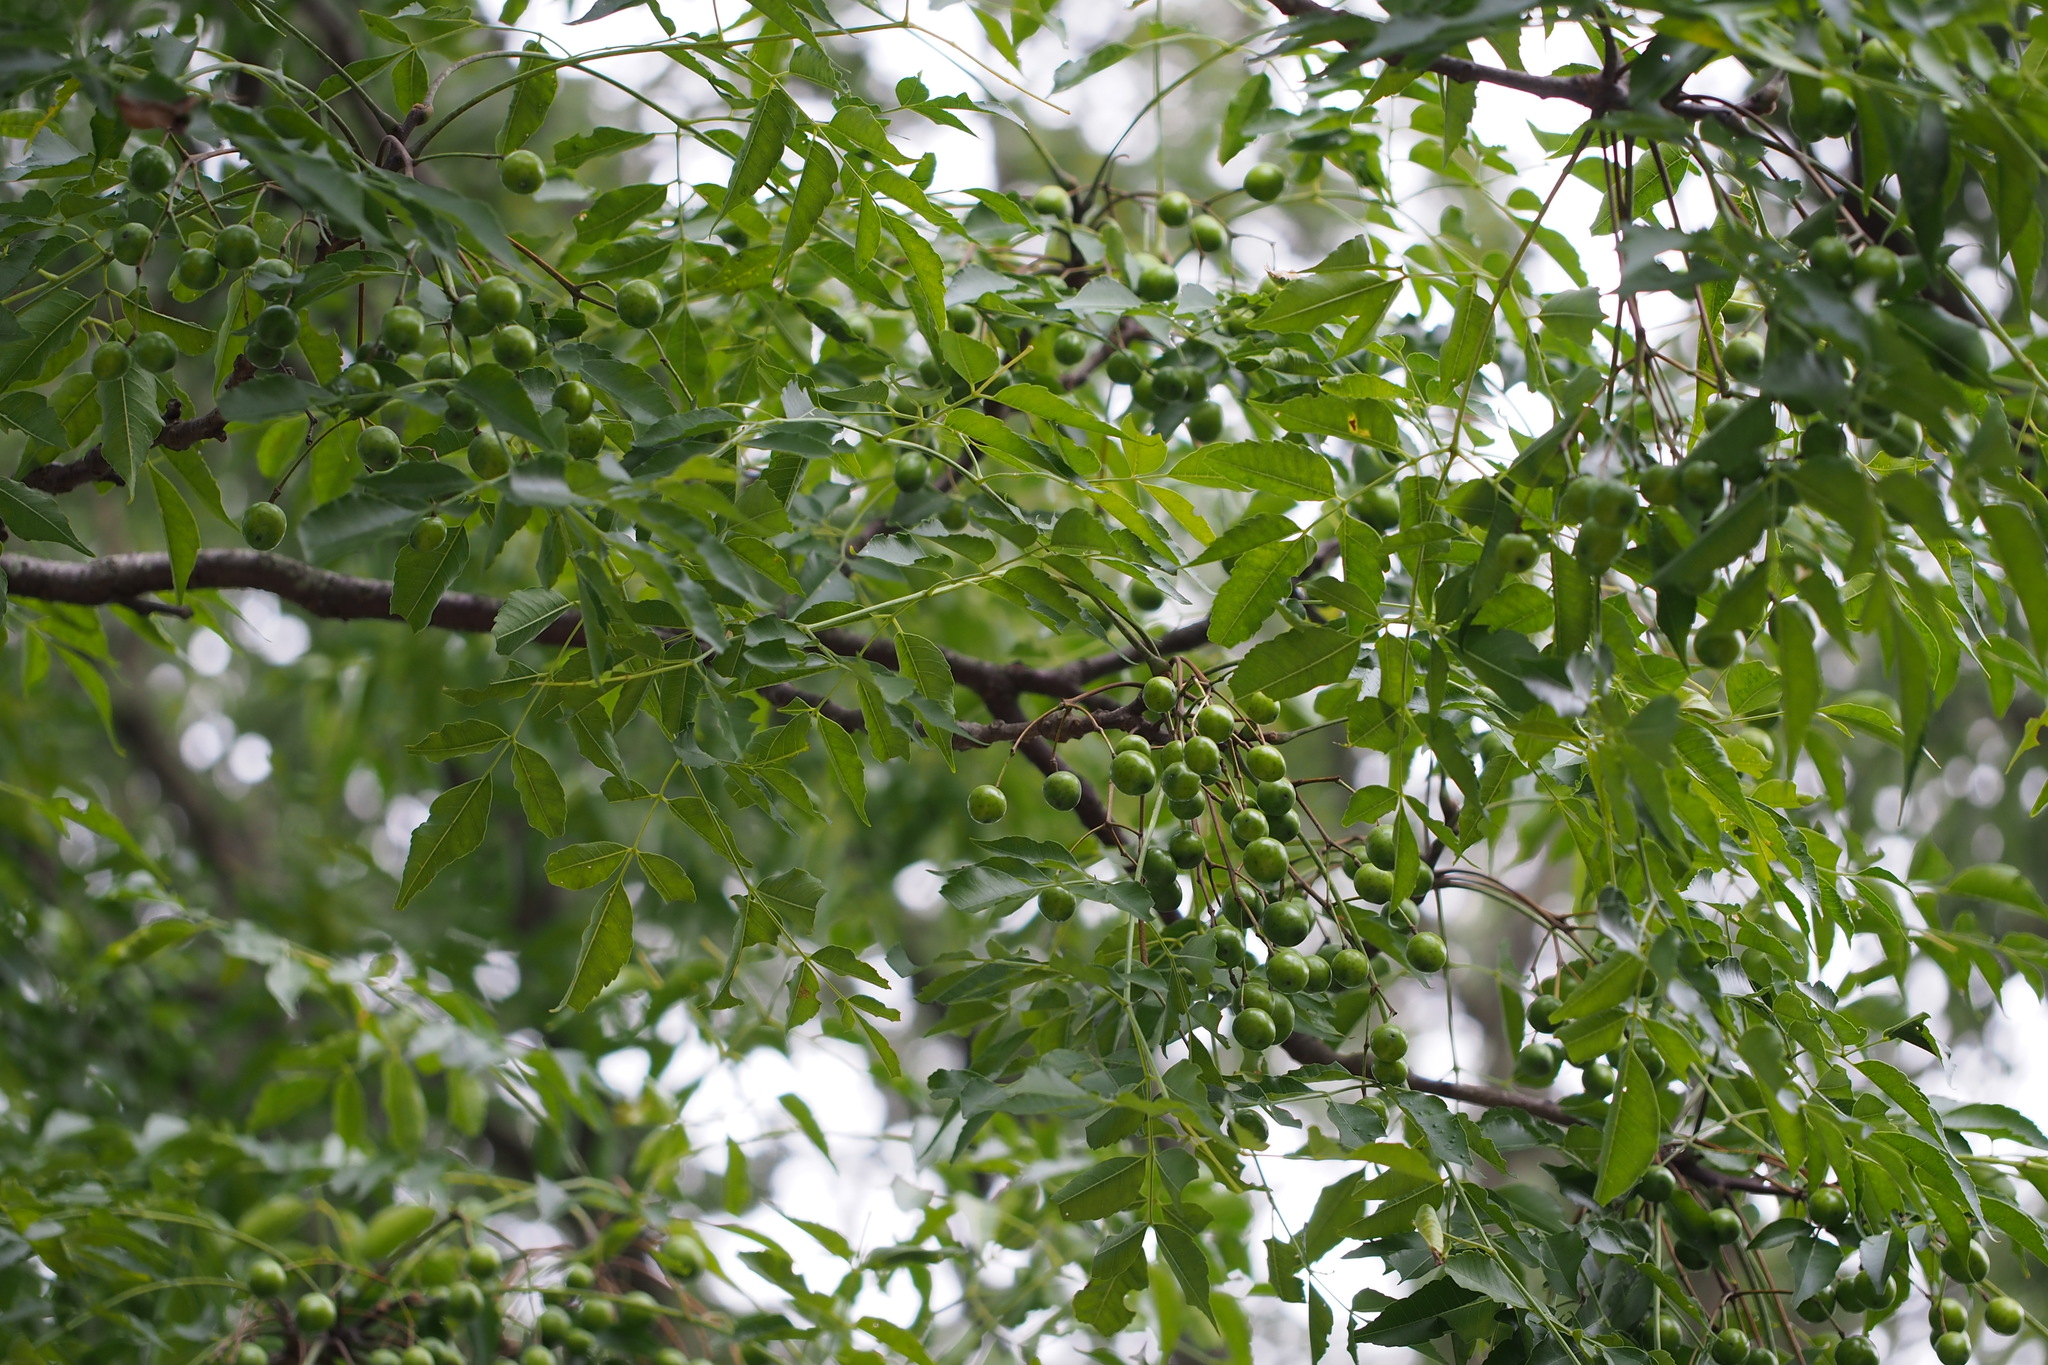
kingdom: Plantae
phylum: Tracheophyta
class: Magnoliopsida
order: Sapindales
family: Meliaceae
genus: Melia
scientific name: Melia azedarach
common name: Chinaberrytree
